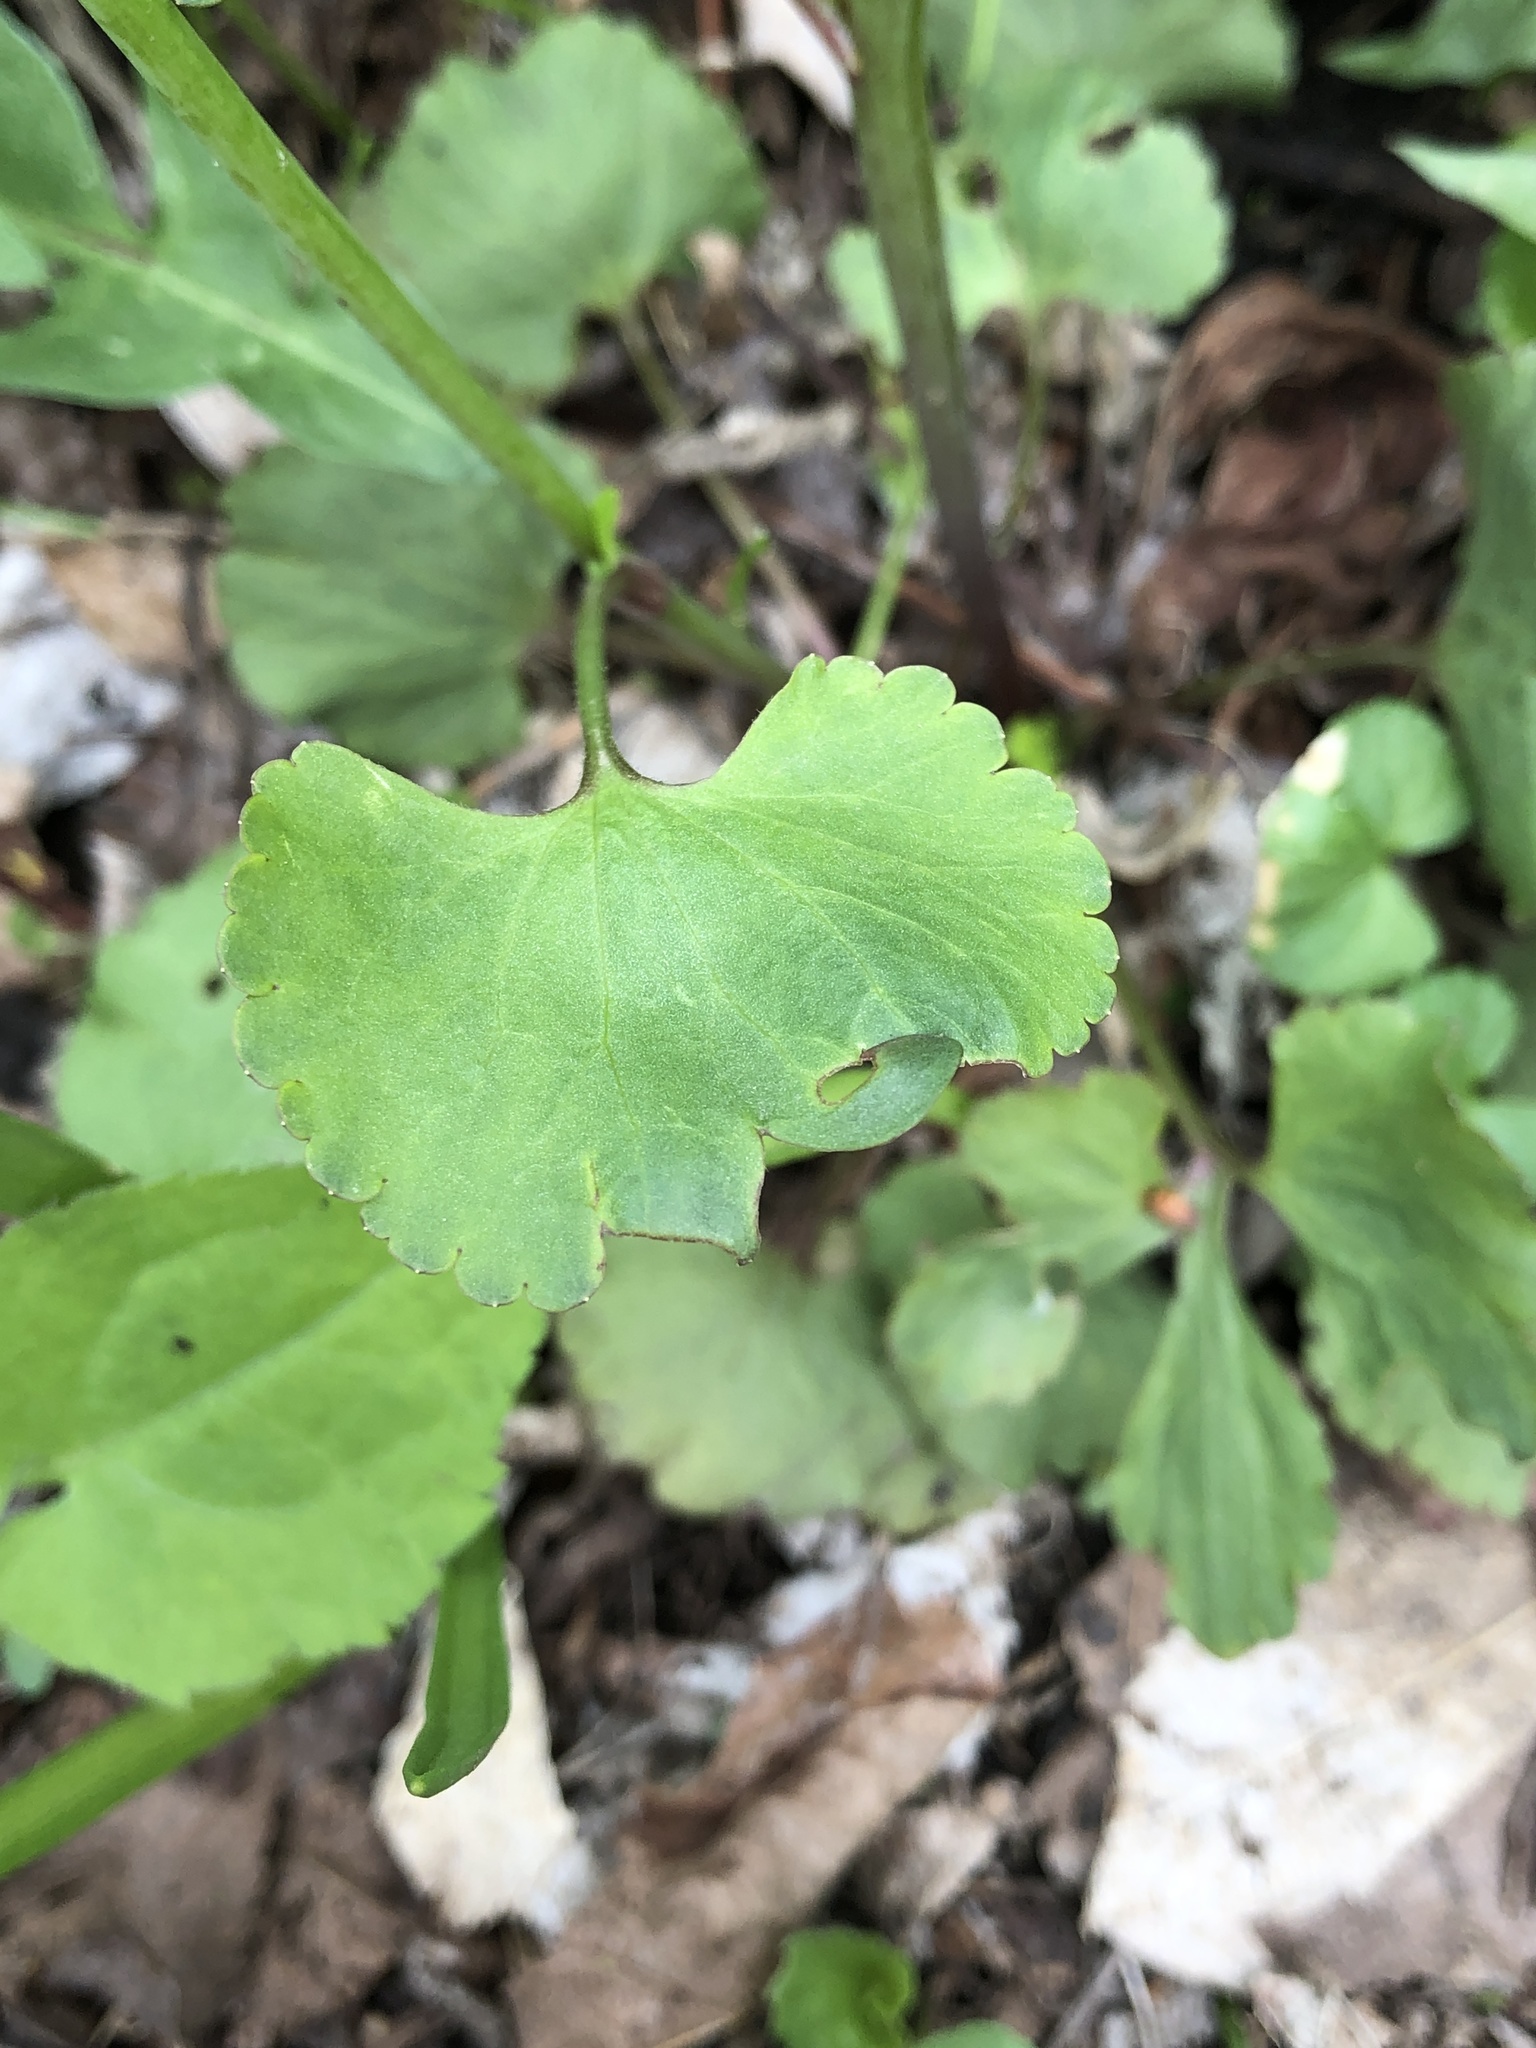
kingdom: Plantae
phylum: Tracheophyta
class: Magnoliopsida
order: Ranunculales
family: Ranunculaceae
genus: Ranunculus
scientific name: Ranunculus abortivus
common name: Early wood buttercup
